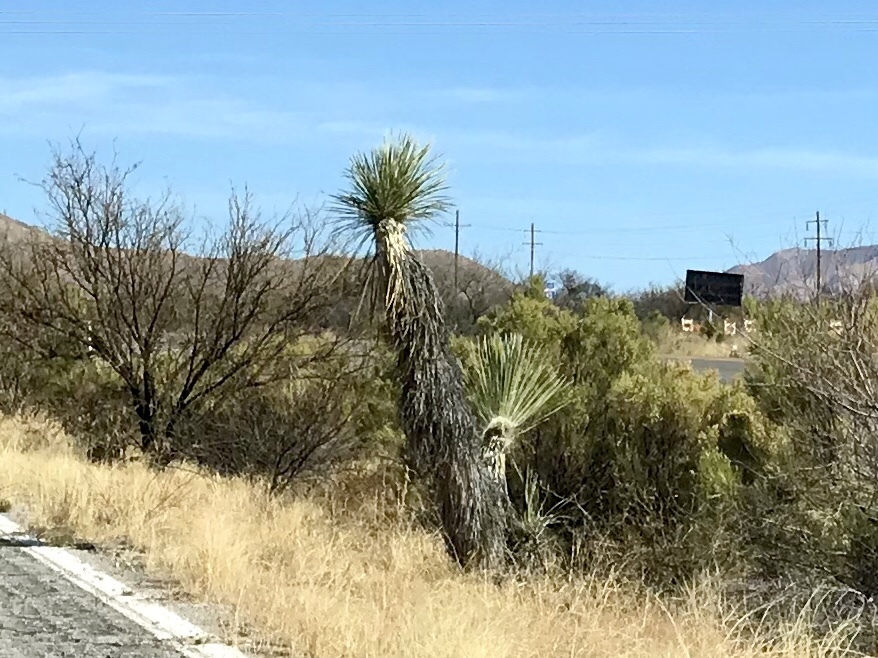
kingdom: Plantae
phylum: Tracheophyta
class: Liliopsida
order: Asparagales
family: Asparagaceae
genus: Yucca
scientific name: Yucca elata
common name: Palmella
